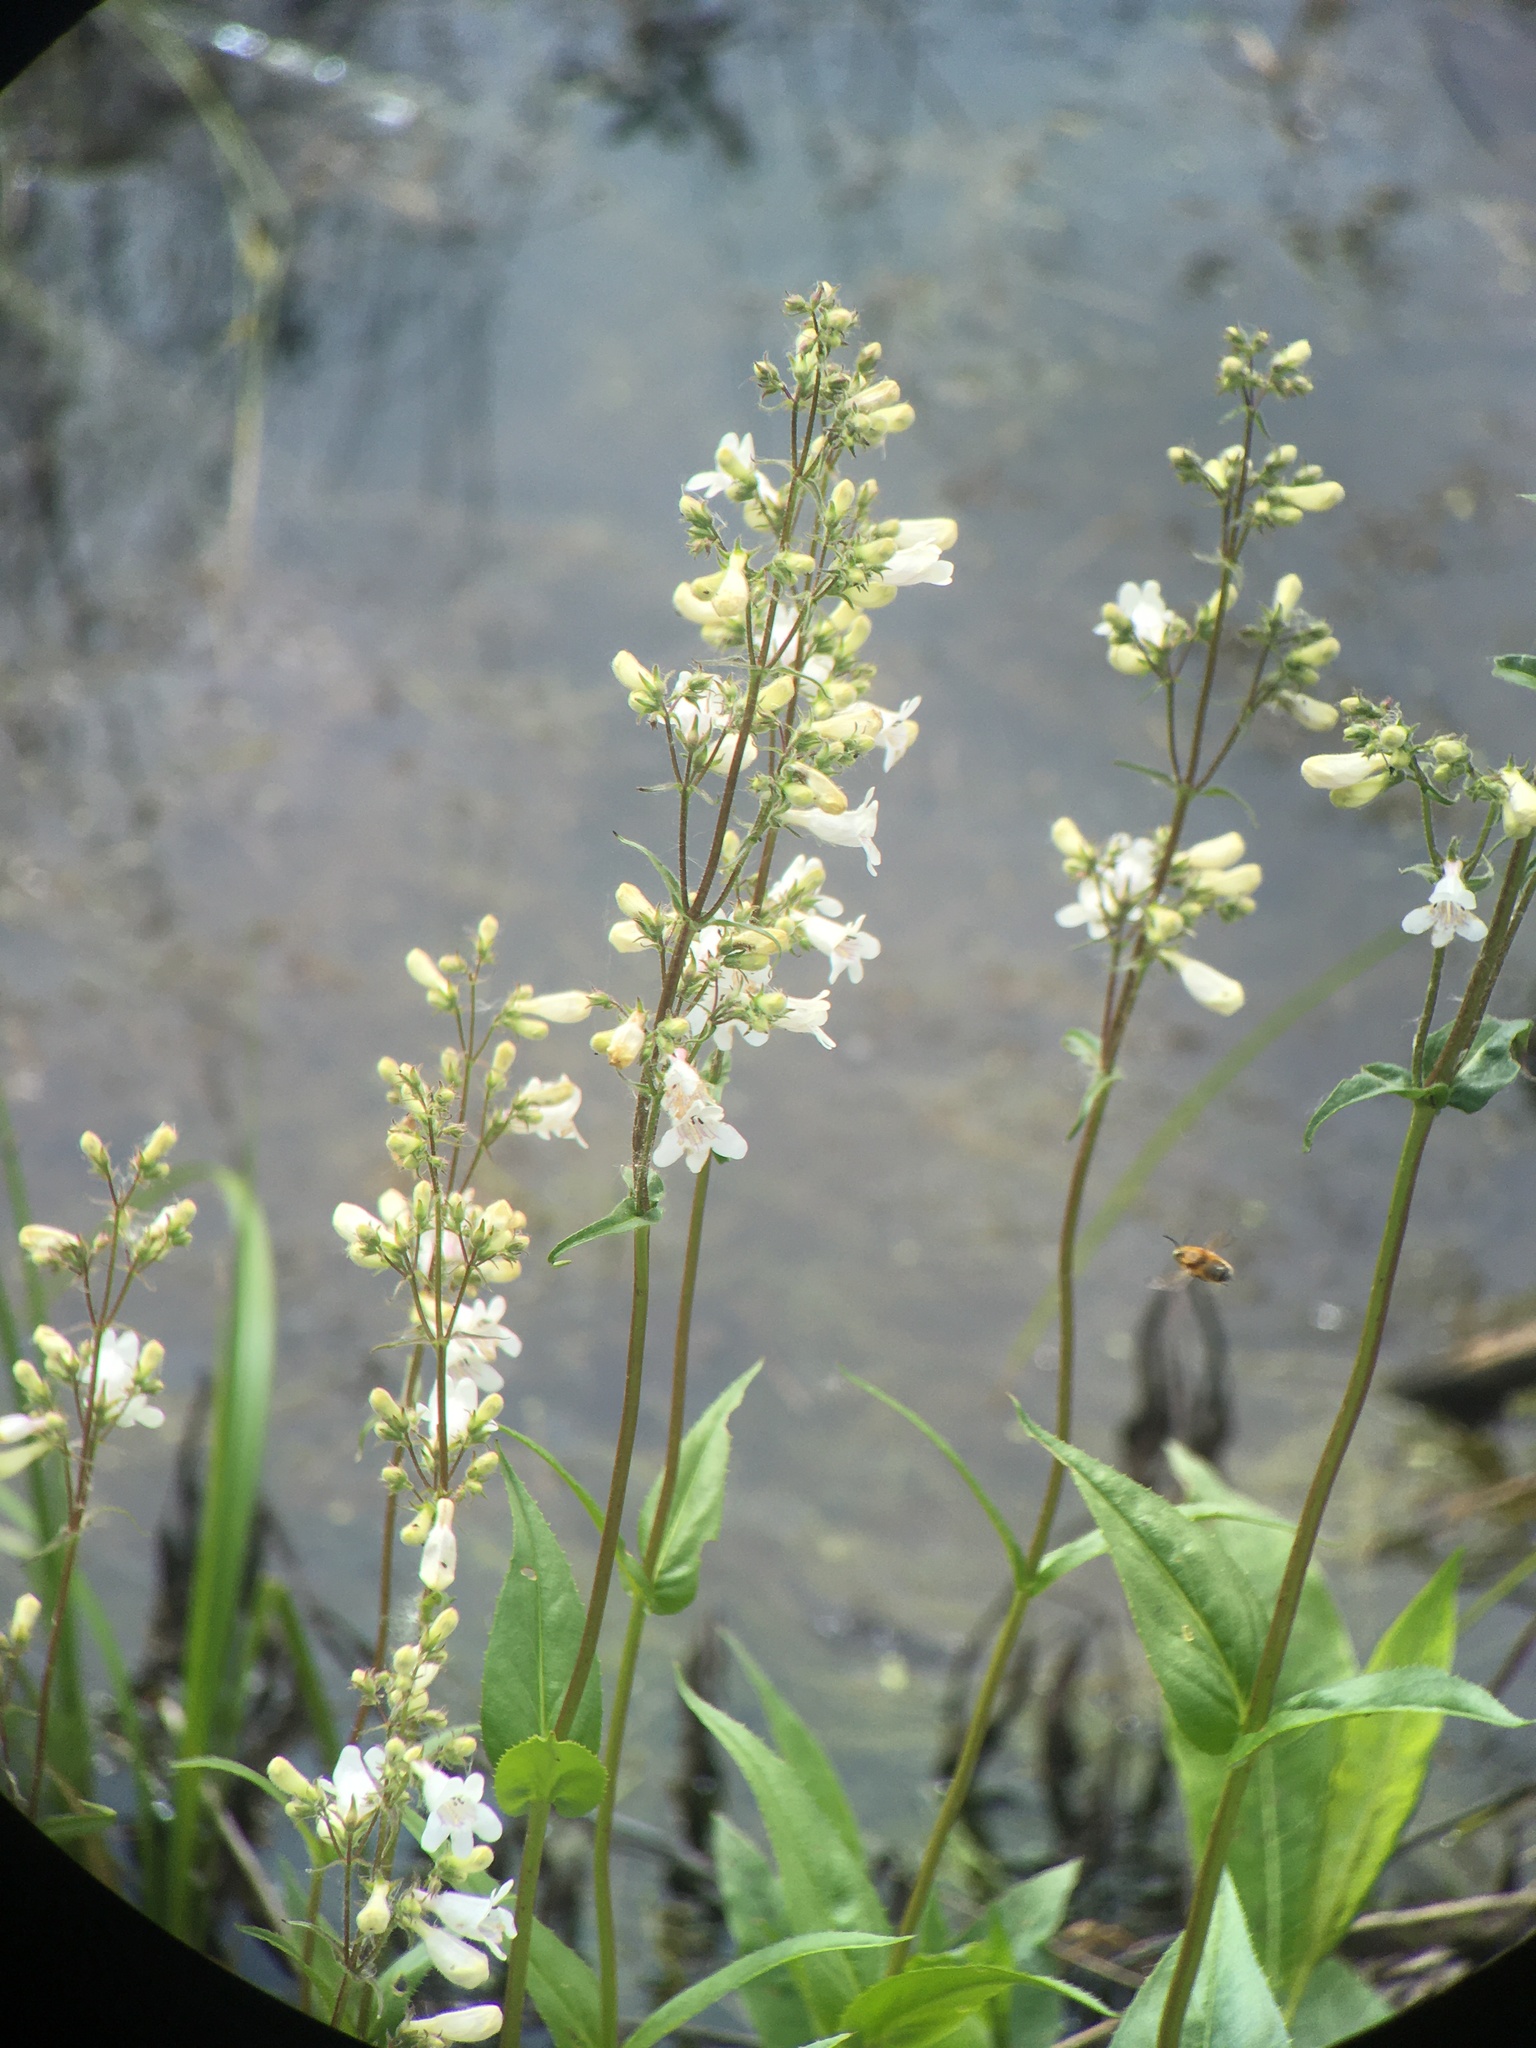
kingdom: Plantae
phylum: Tracheophyta
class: Magnoliopsida
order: Lamiales
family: Plantaginaceae
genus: Penstemon
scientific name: Penstemon digitalis
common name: Foxglove beardtongue
